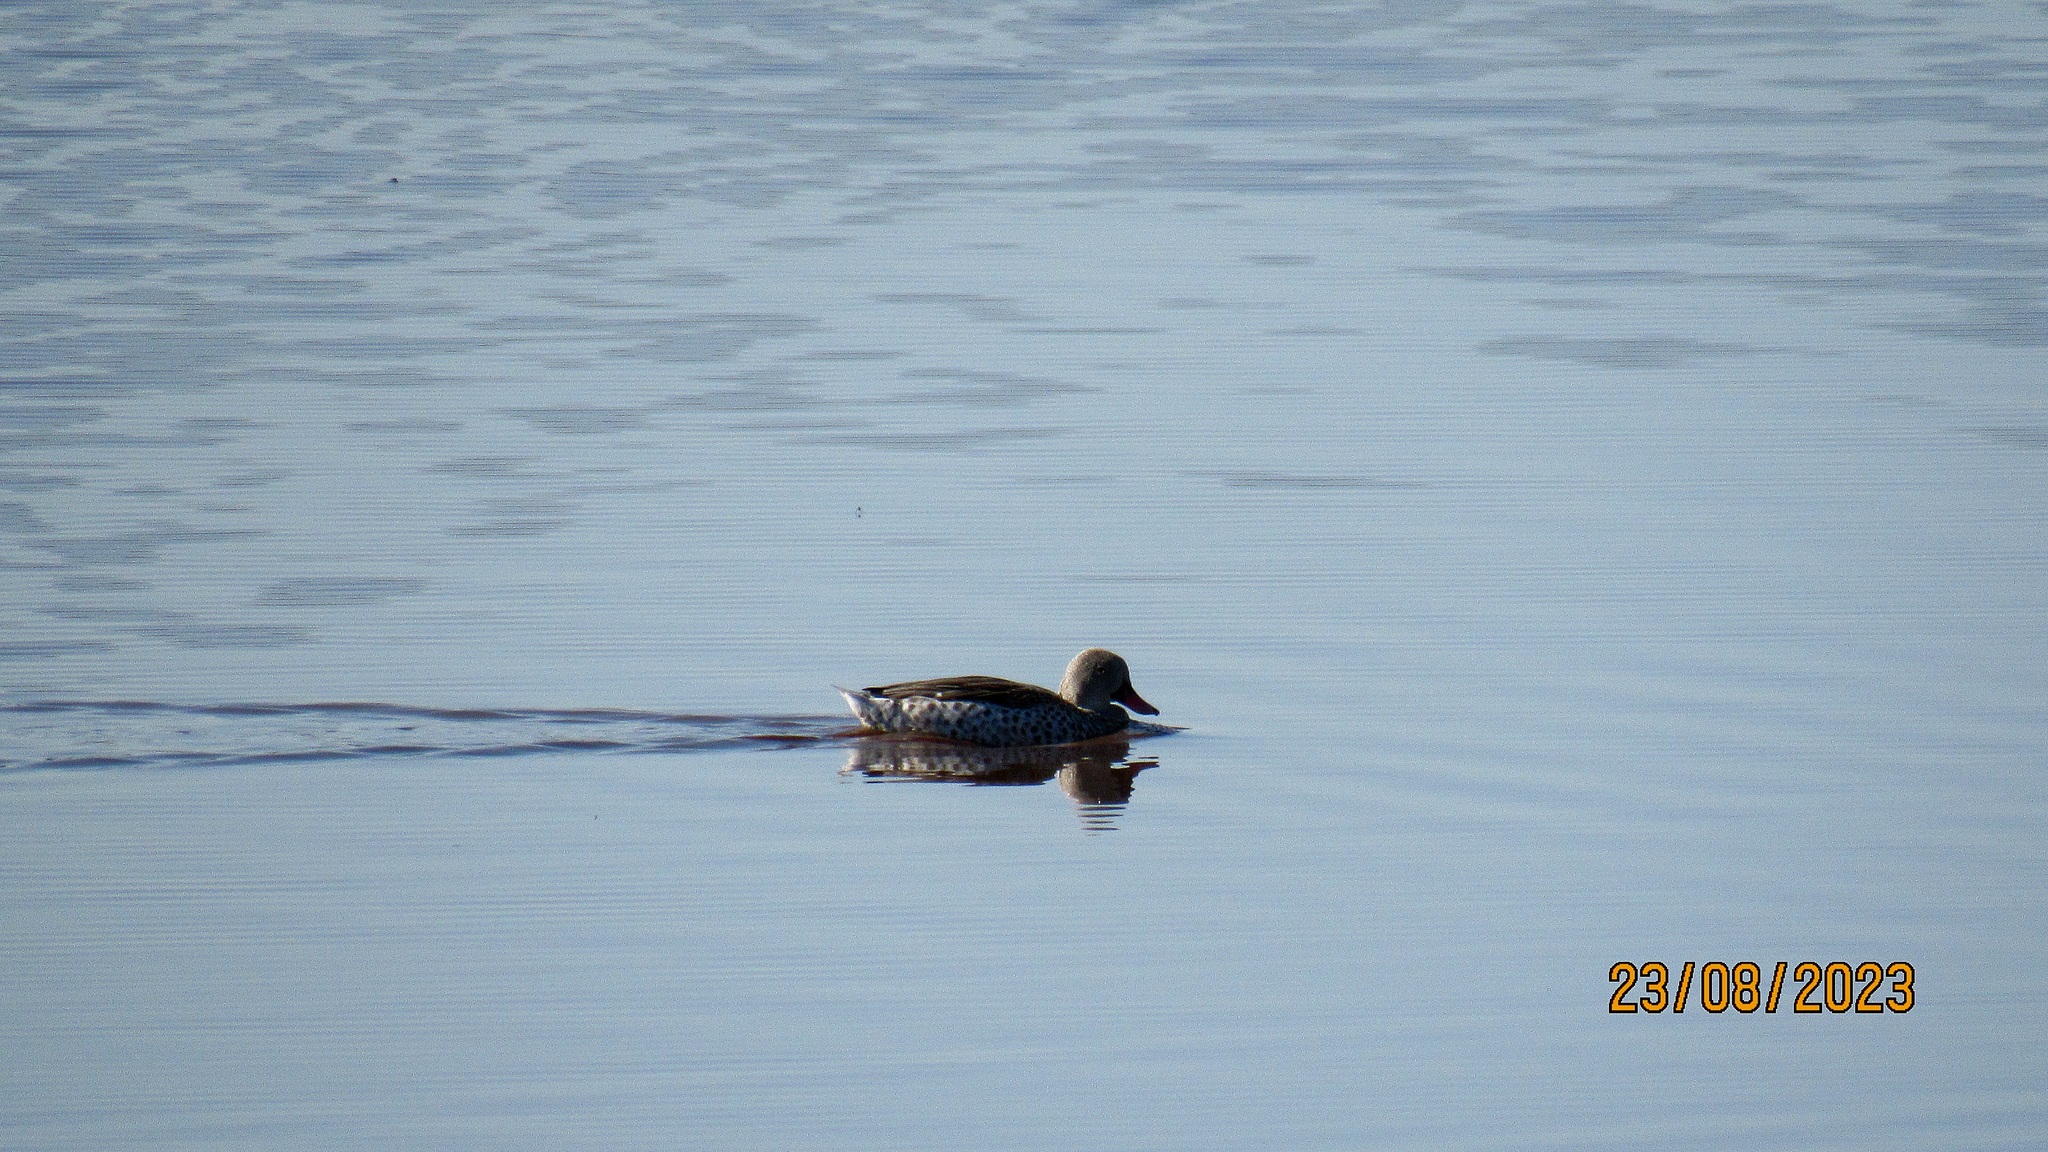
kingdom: Animalia
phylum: Chordata
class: Aves
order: Anseriformes
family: Anatidae
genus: Anas
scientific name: Anas capensis
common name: Cape teal
